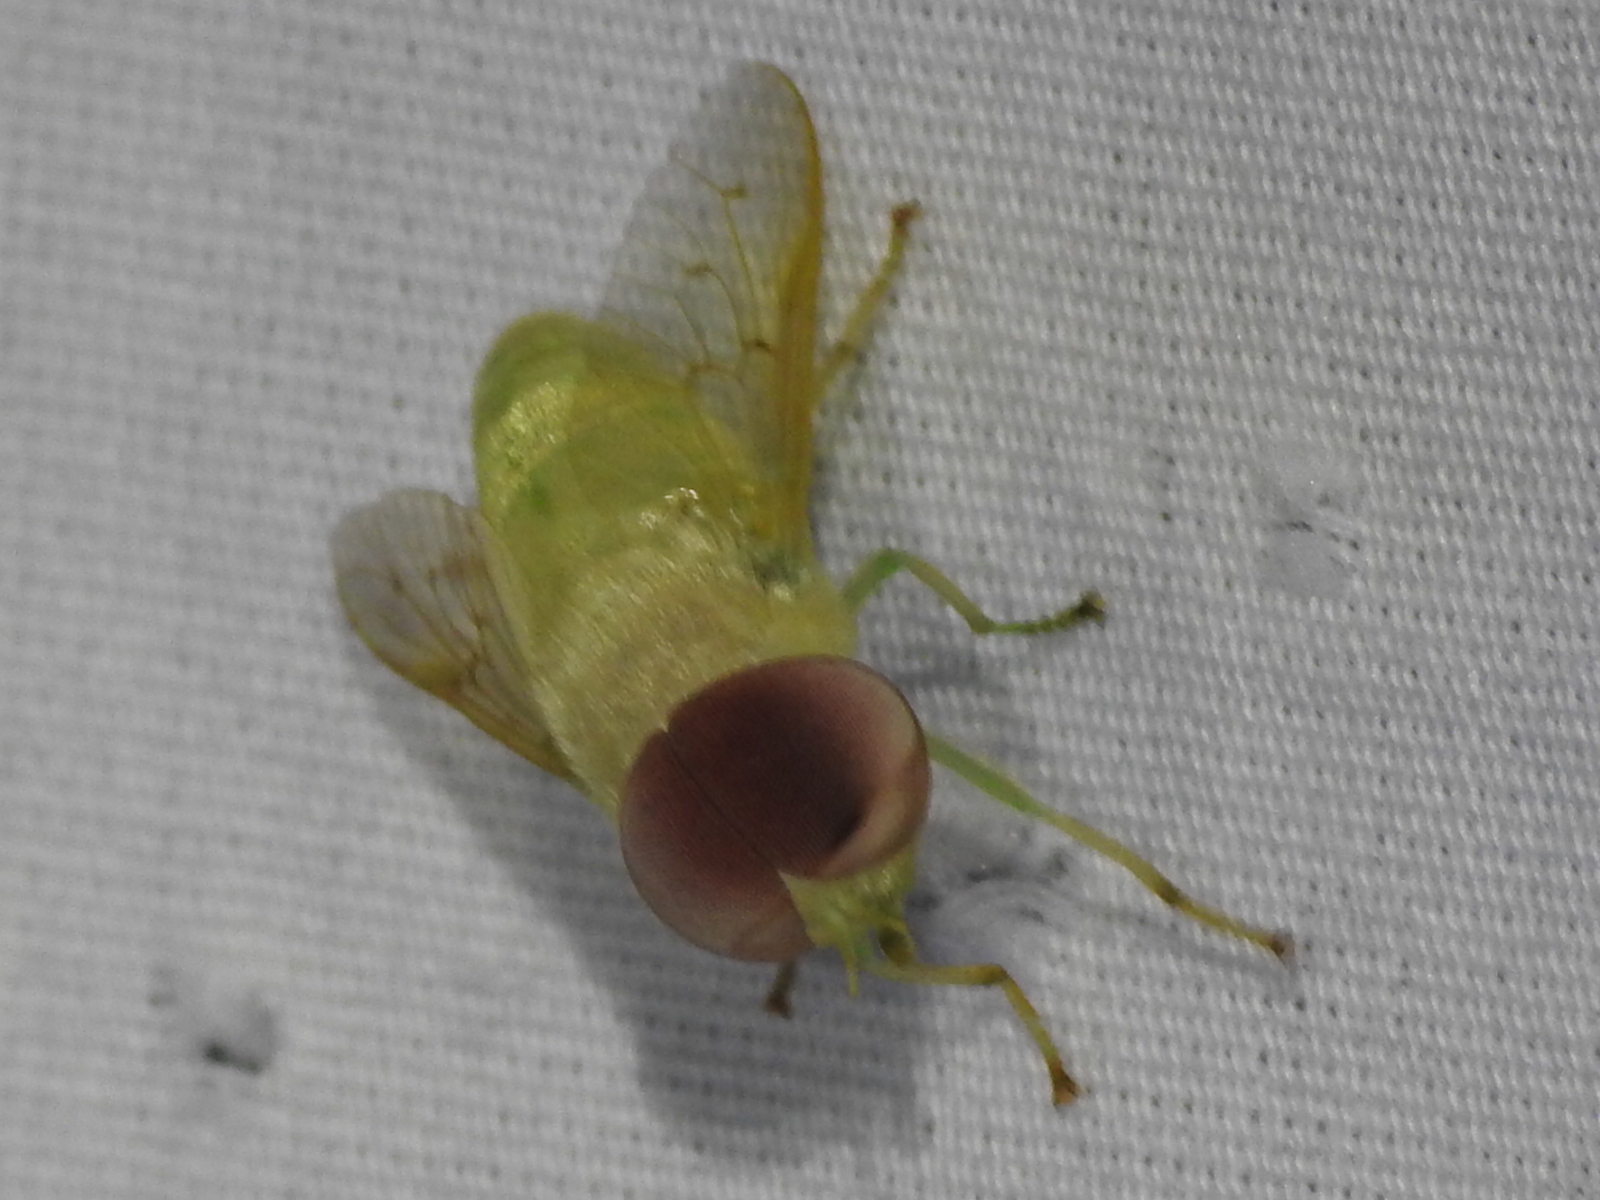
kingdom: Animalia
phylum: Arthropoda
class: Insecta
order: Diptera
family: Tabanidae
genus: Chlorotabanus
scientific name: Chlorotabanus crepuscularis
